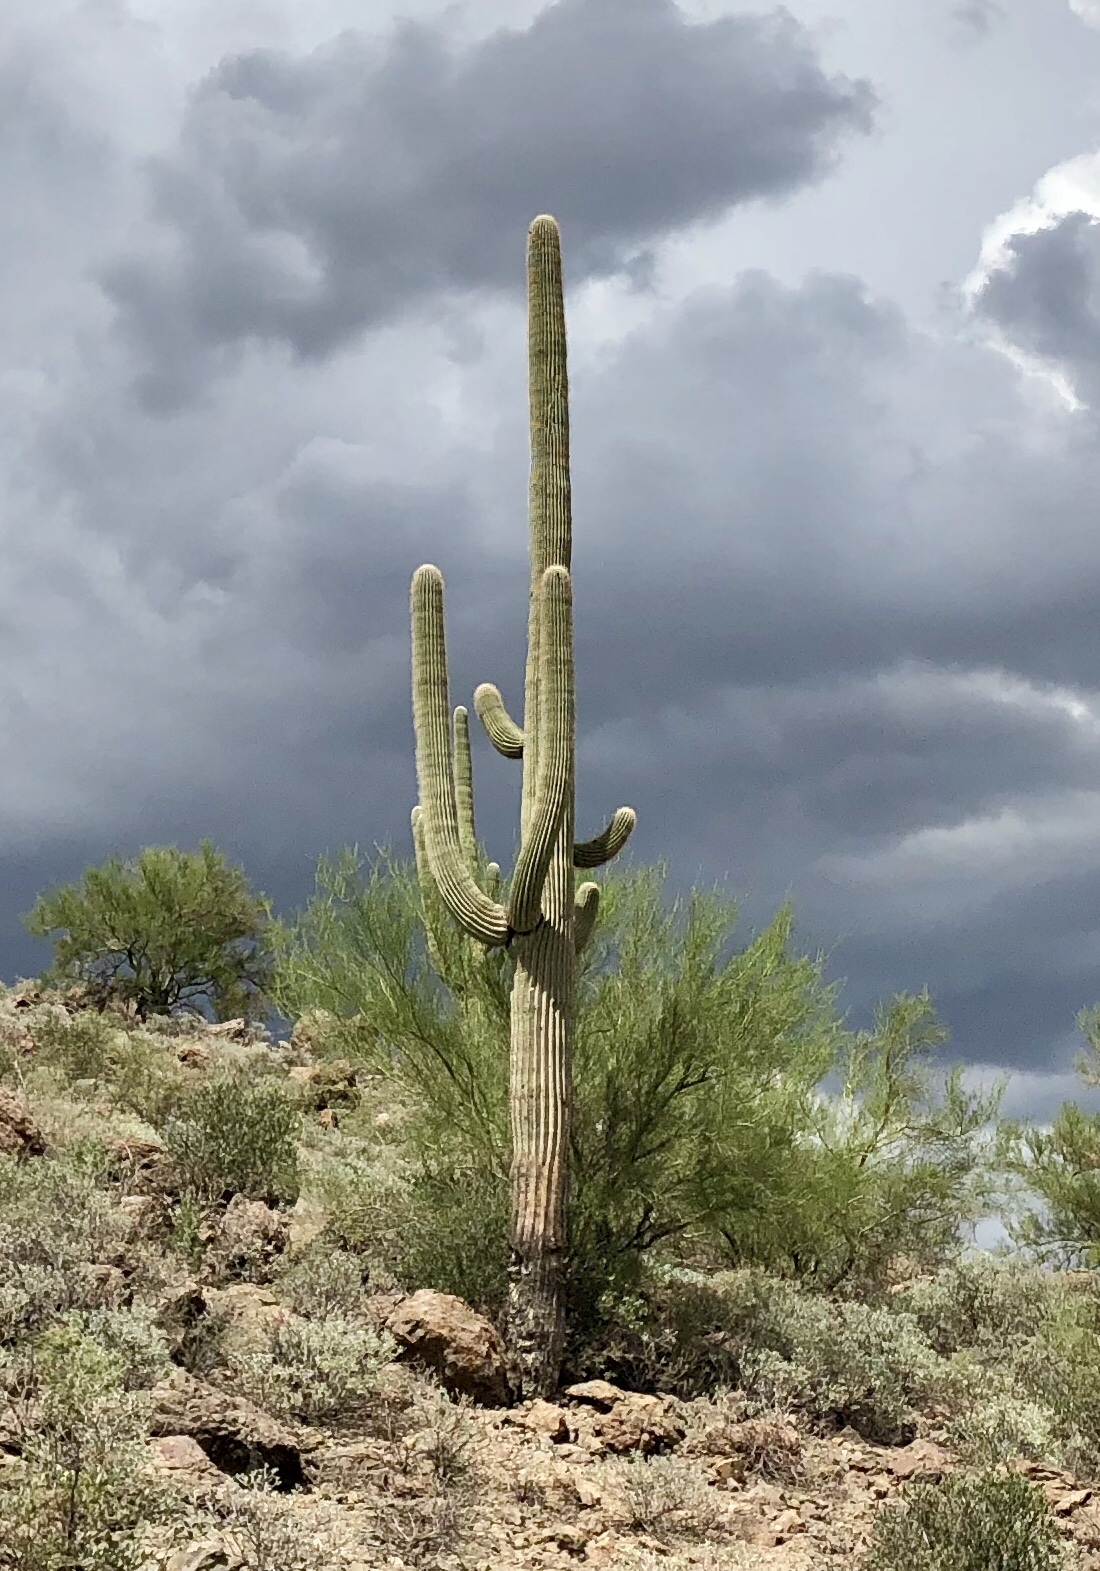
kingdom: Plantae
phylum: Tracheophyta
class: Magnoliopsida
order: Caryophyllales
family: Cactaceae
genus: Carnegiea
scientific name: Carnegiea gigantea
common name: Saguaro
